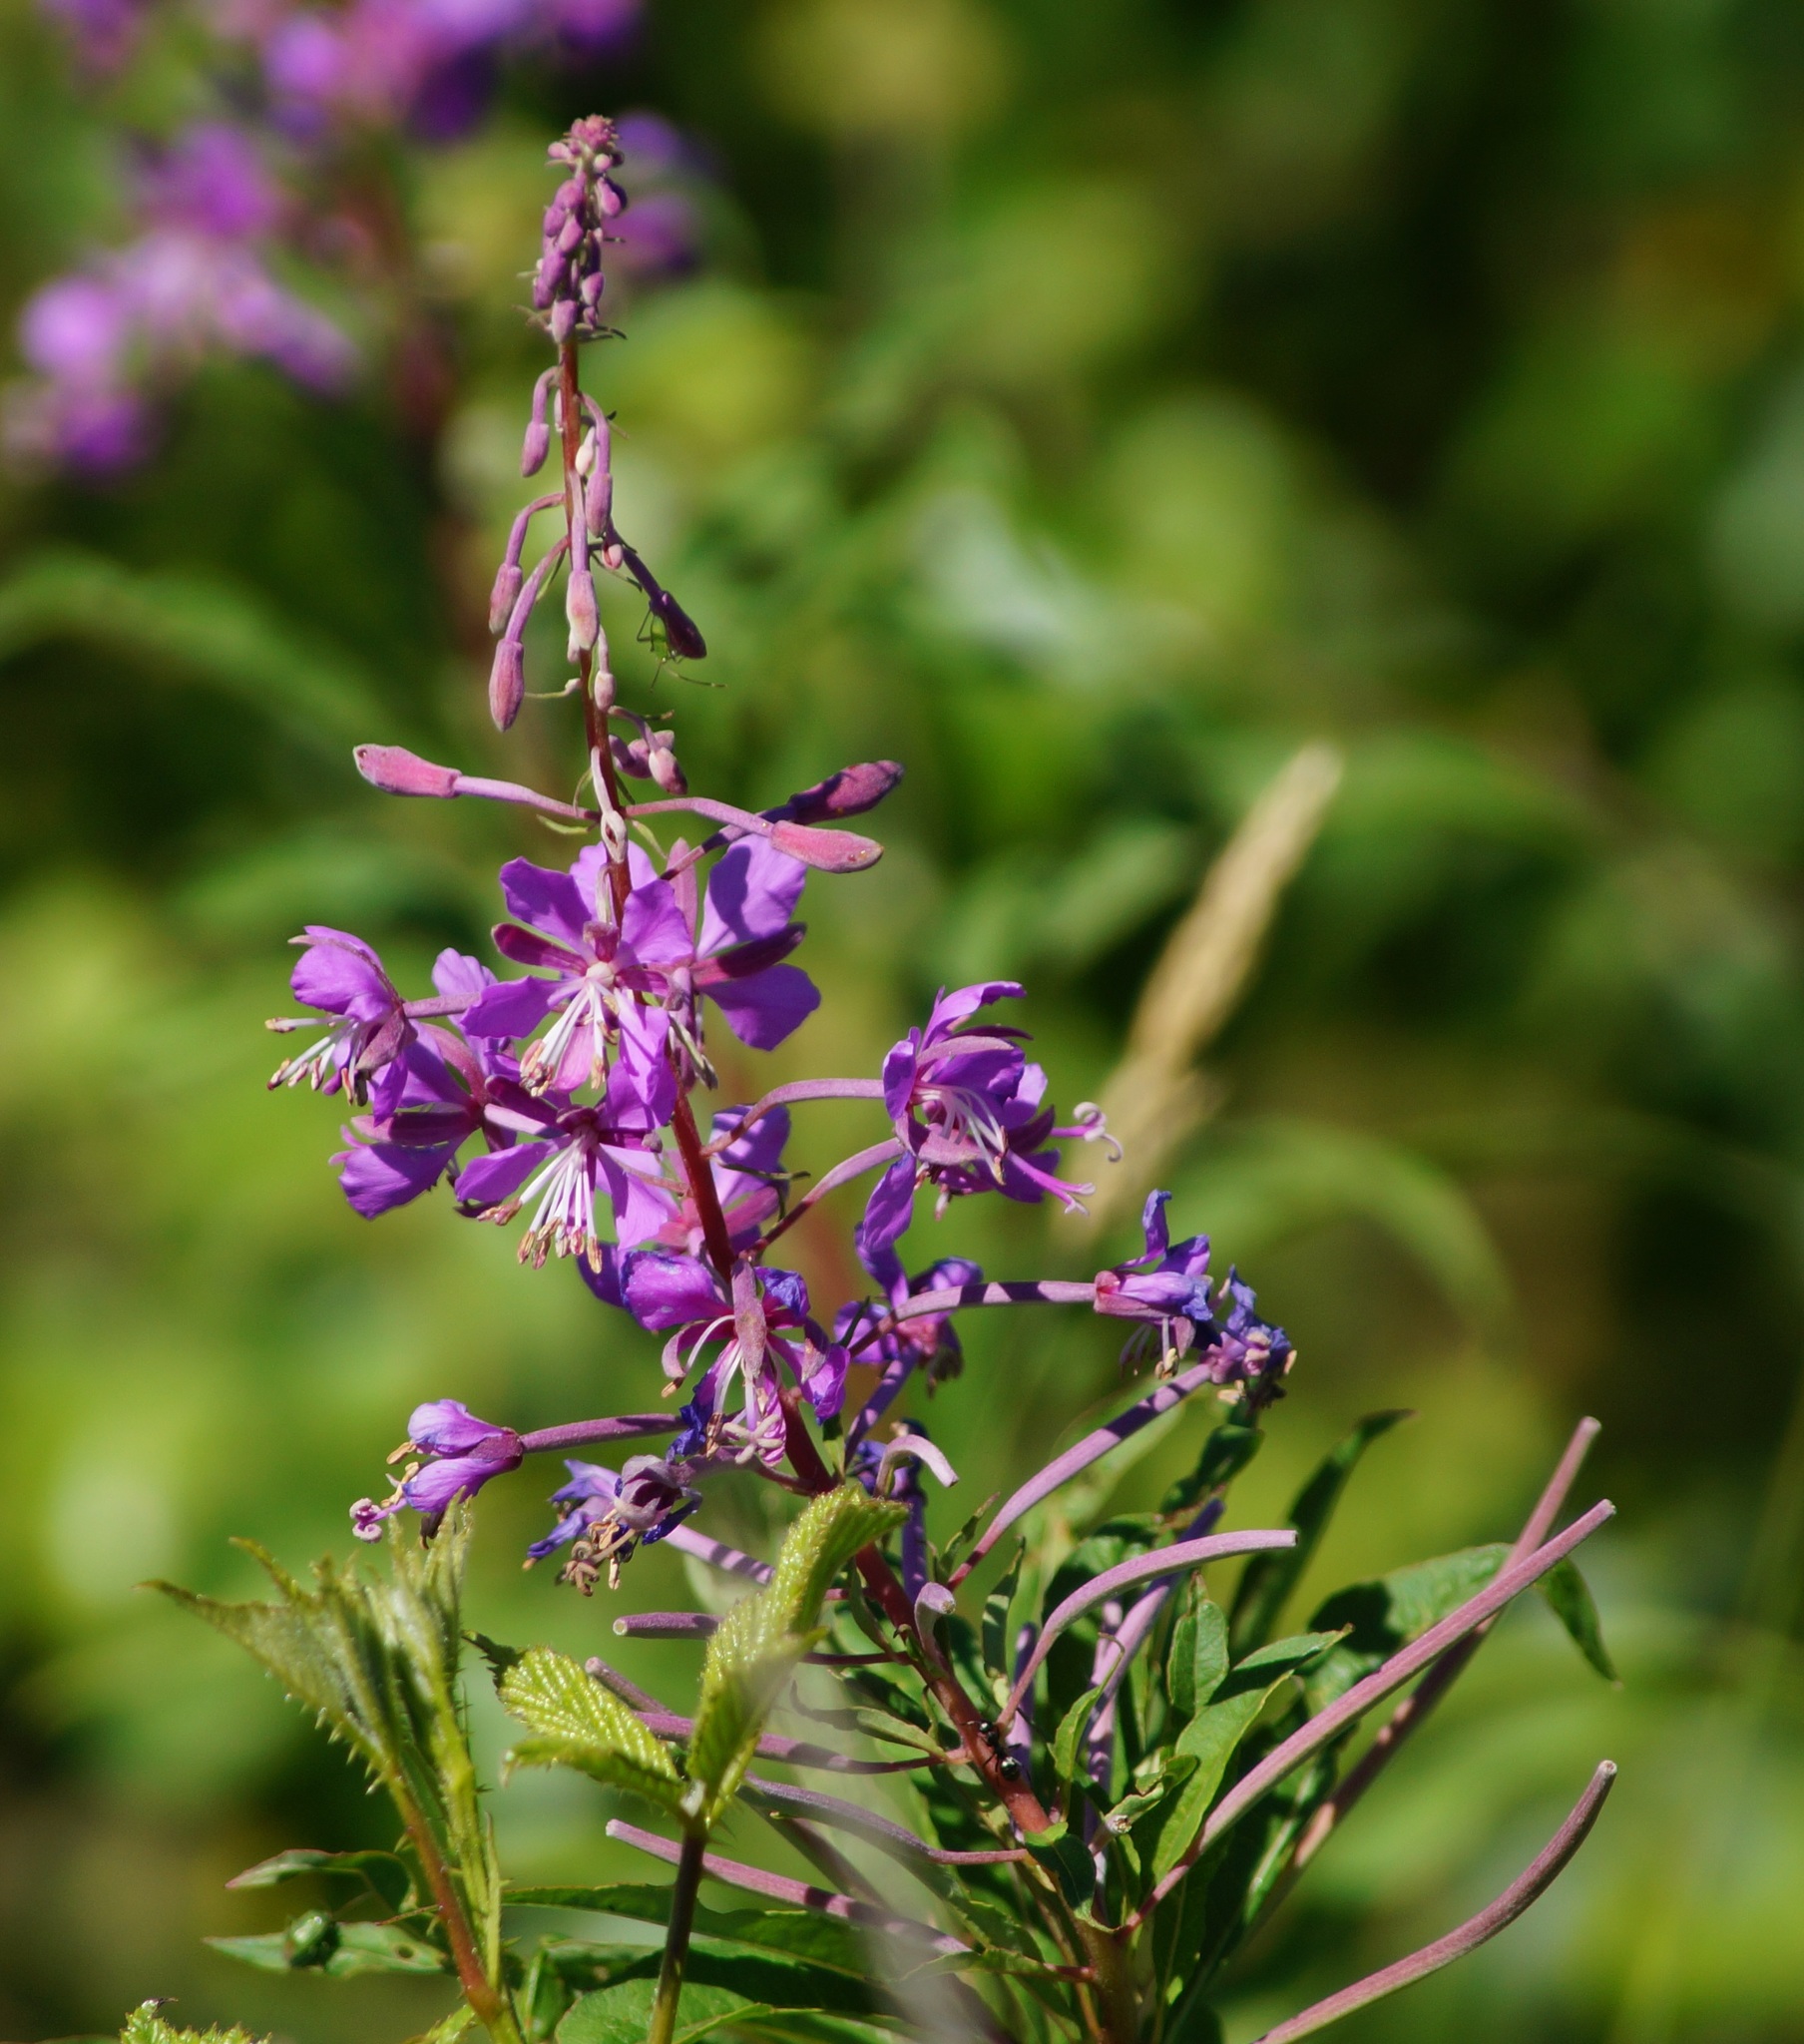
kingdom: Plantae
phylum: Tracheophyta
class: Magnoliopsida
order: Myrtales
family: Onagraceae
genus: Chamaenerion
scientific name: Chamaenerion angustifolium
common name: Fireweed
